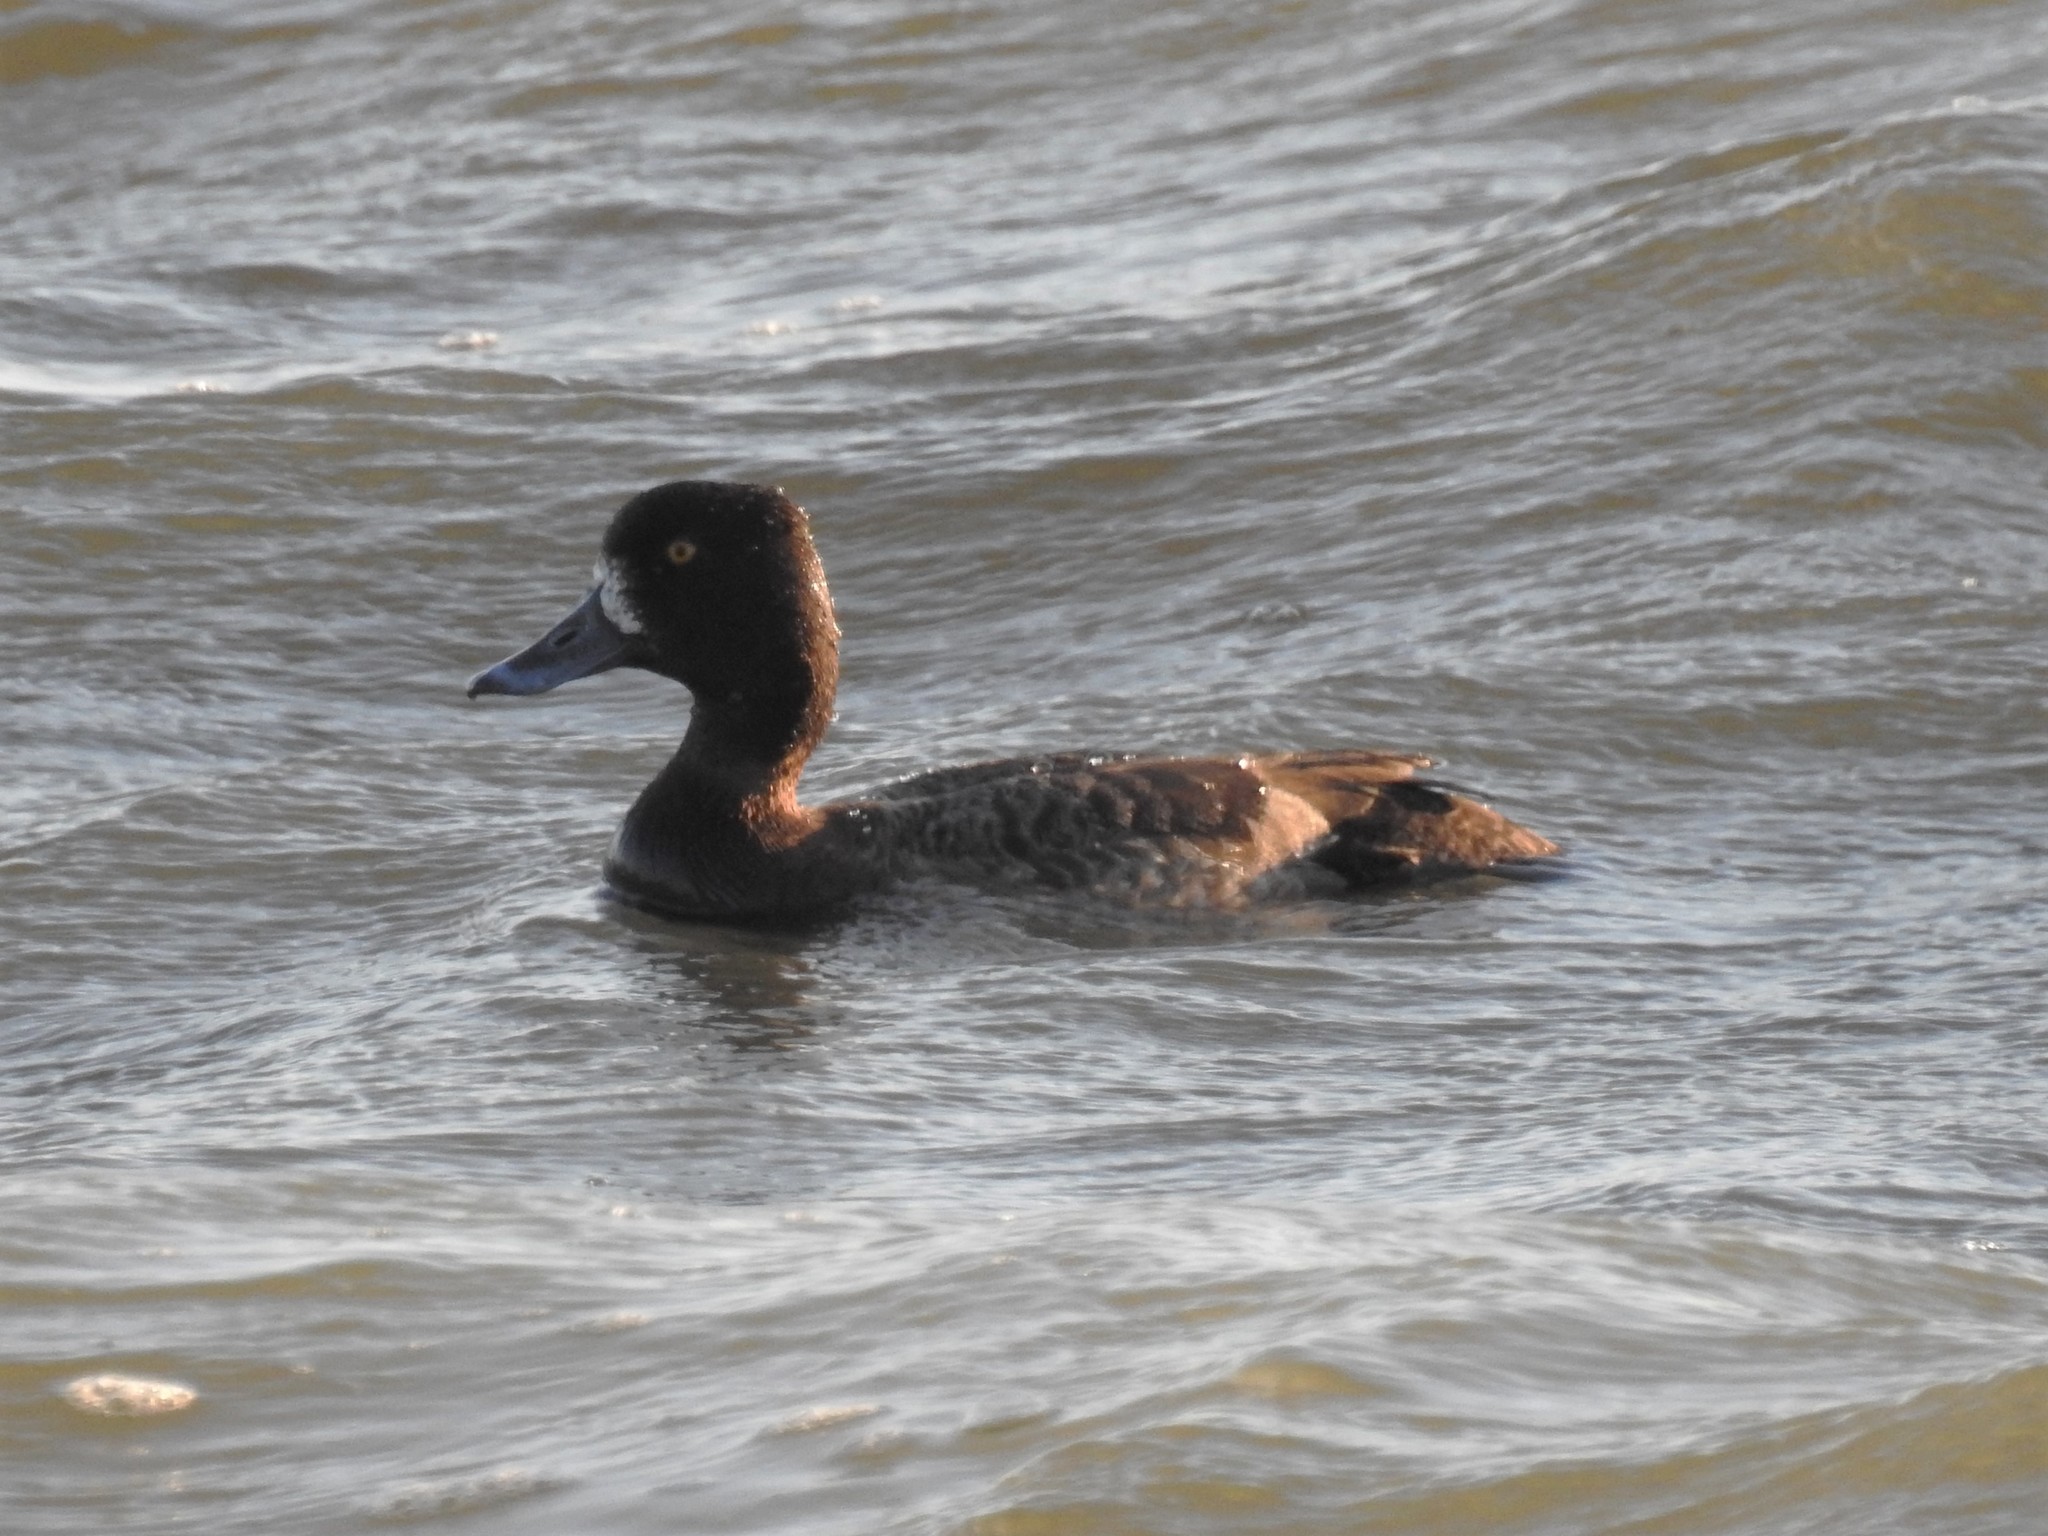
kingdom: Animalia
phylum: Chordata
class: Aves
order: Anseriformes
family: Anatidae
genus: Aythya
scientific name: Aythya marila
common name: Greater scaup
